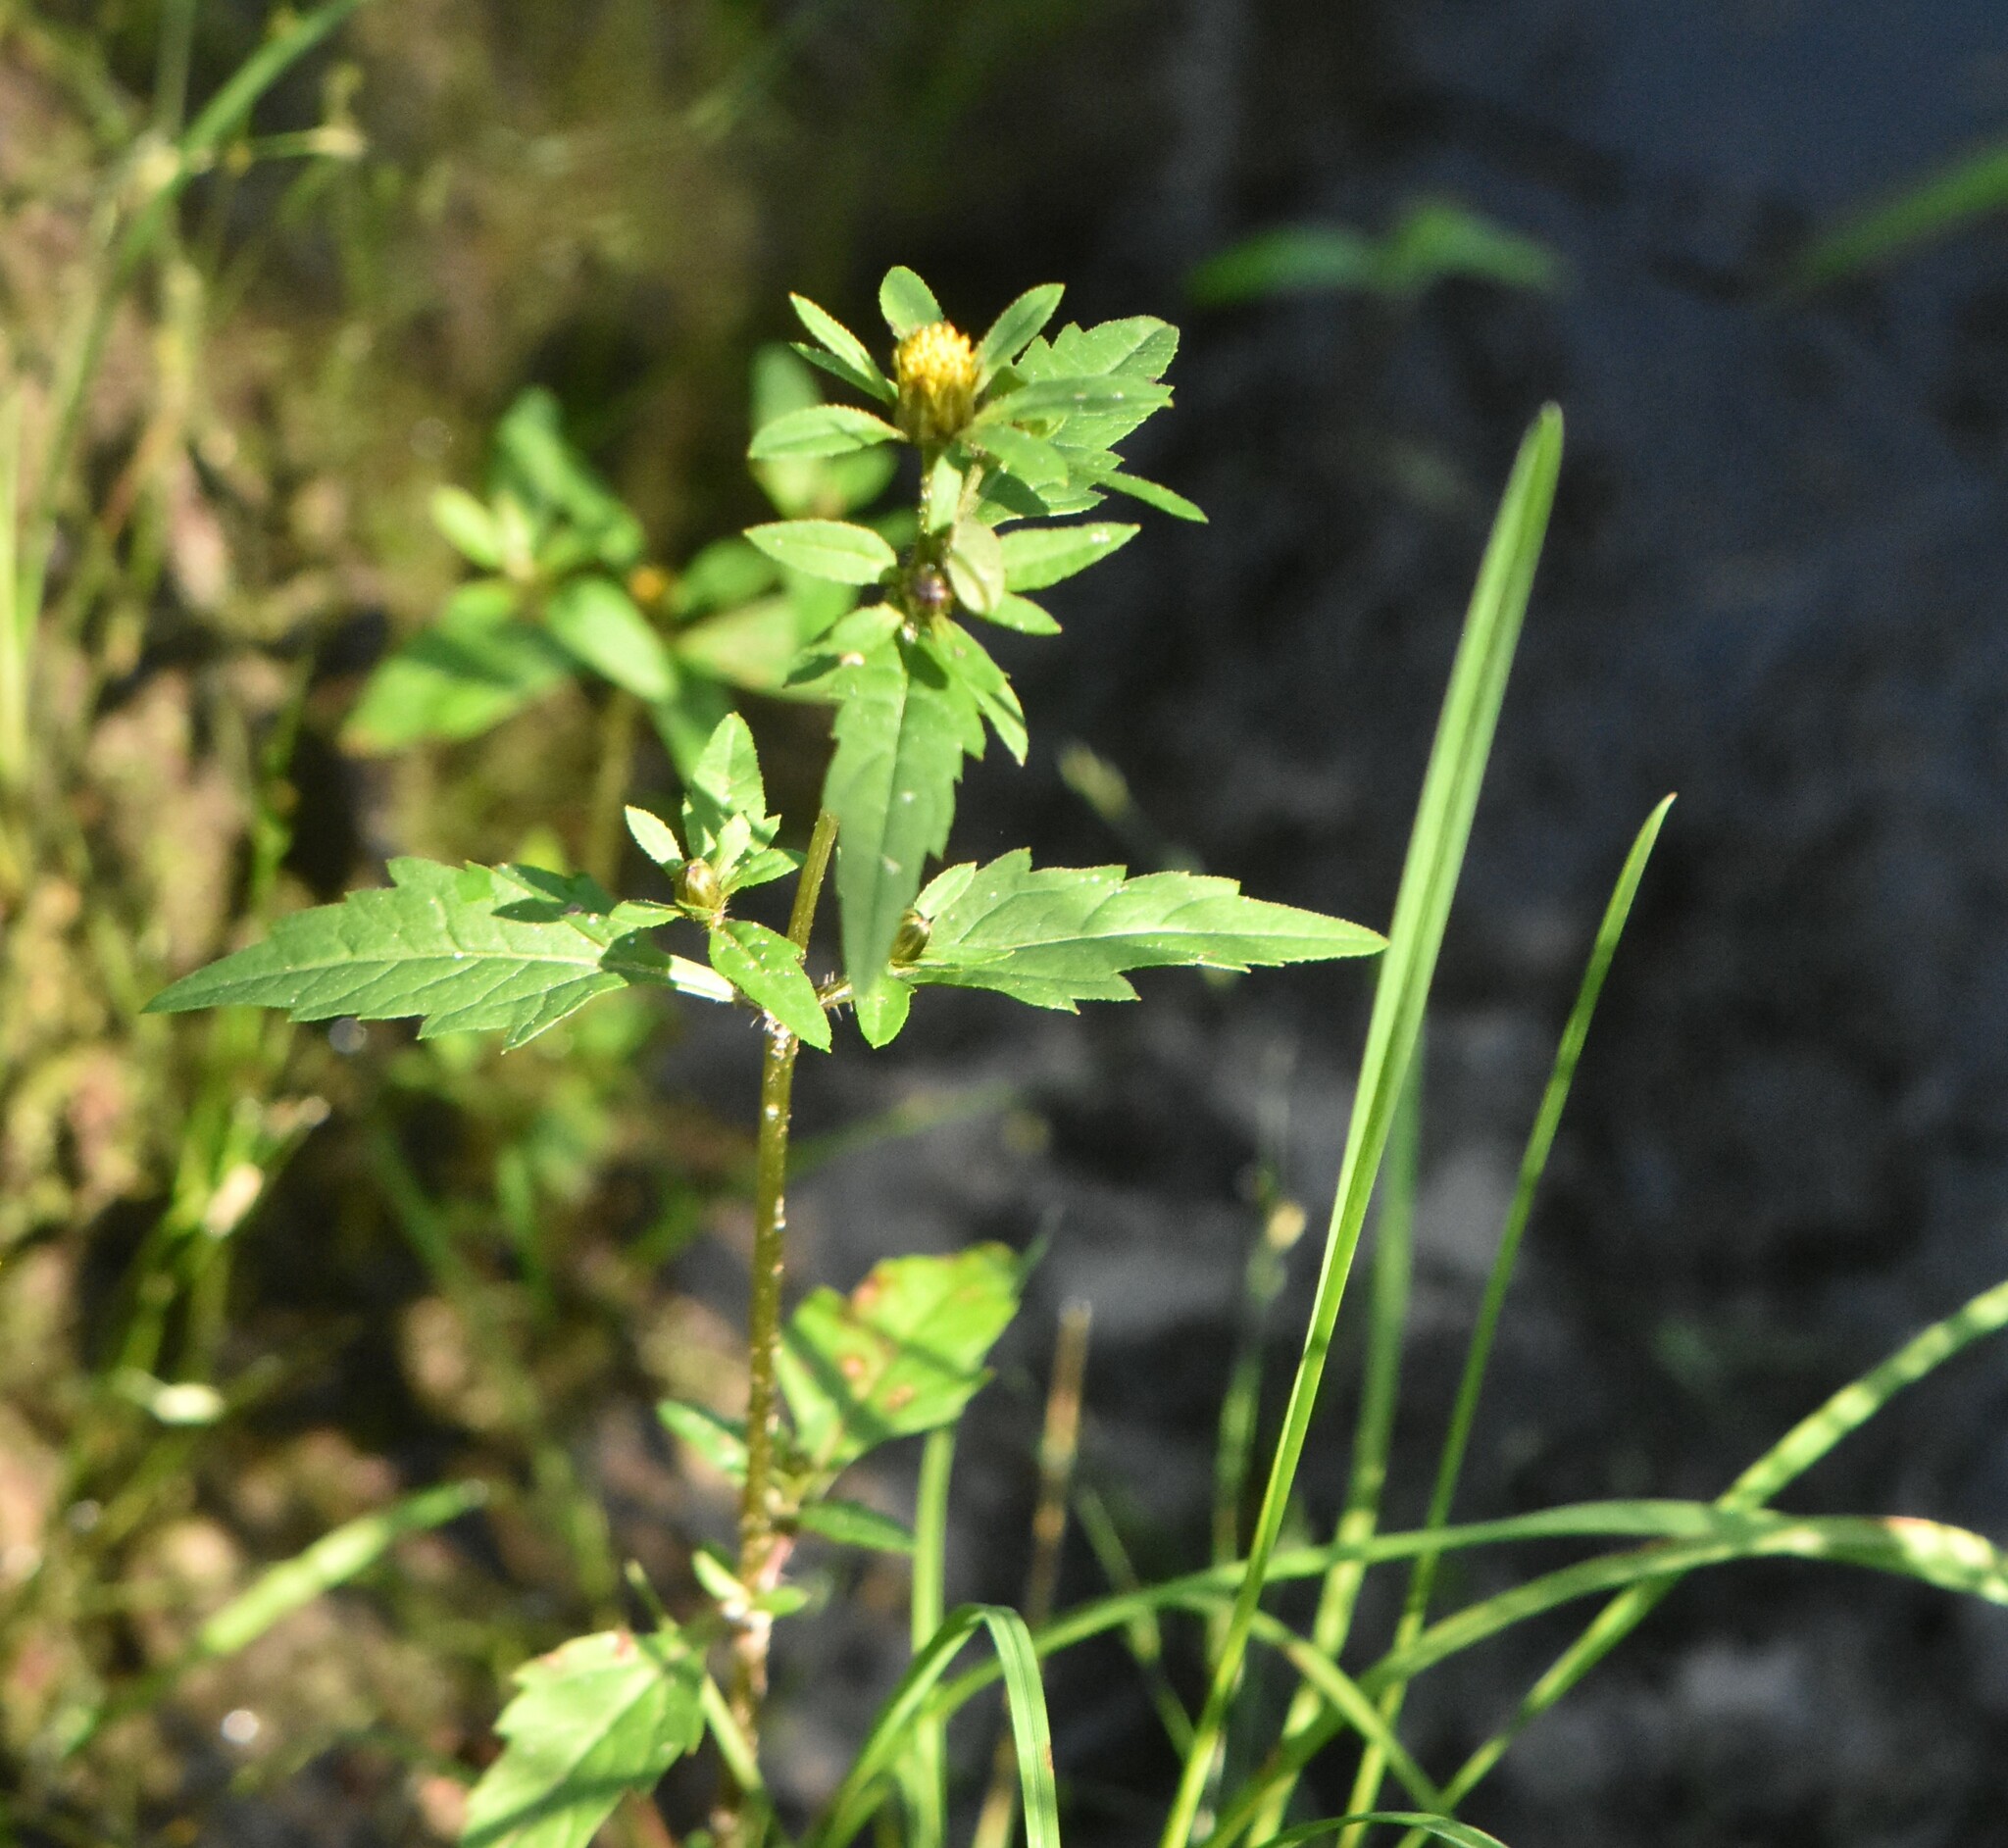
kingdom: Plantae
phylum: Tracheophyta
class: Magnoliopsida
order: Asterales
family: Asteraceae
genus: Bidens
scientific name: Bidens tripartita
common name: Trifid bur-marigold
